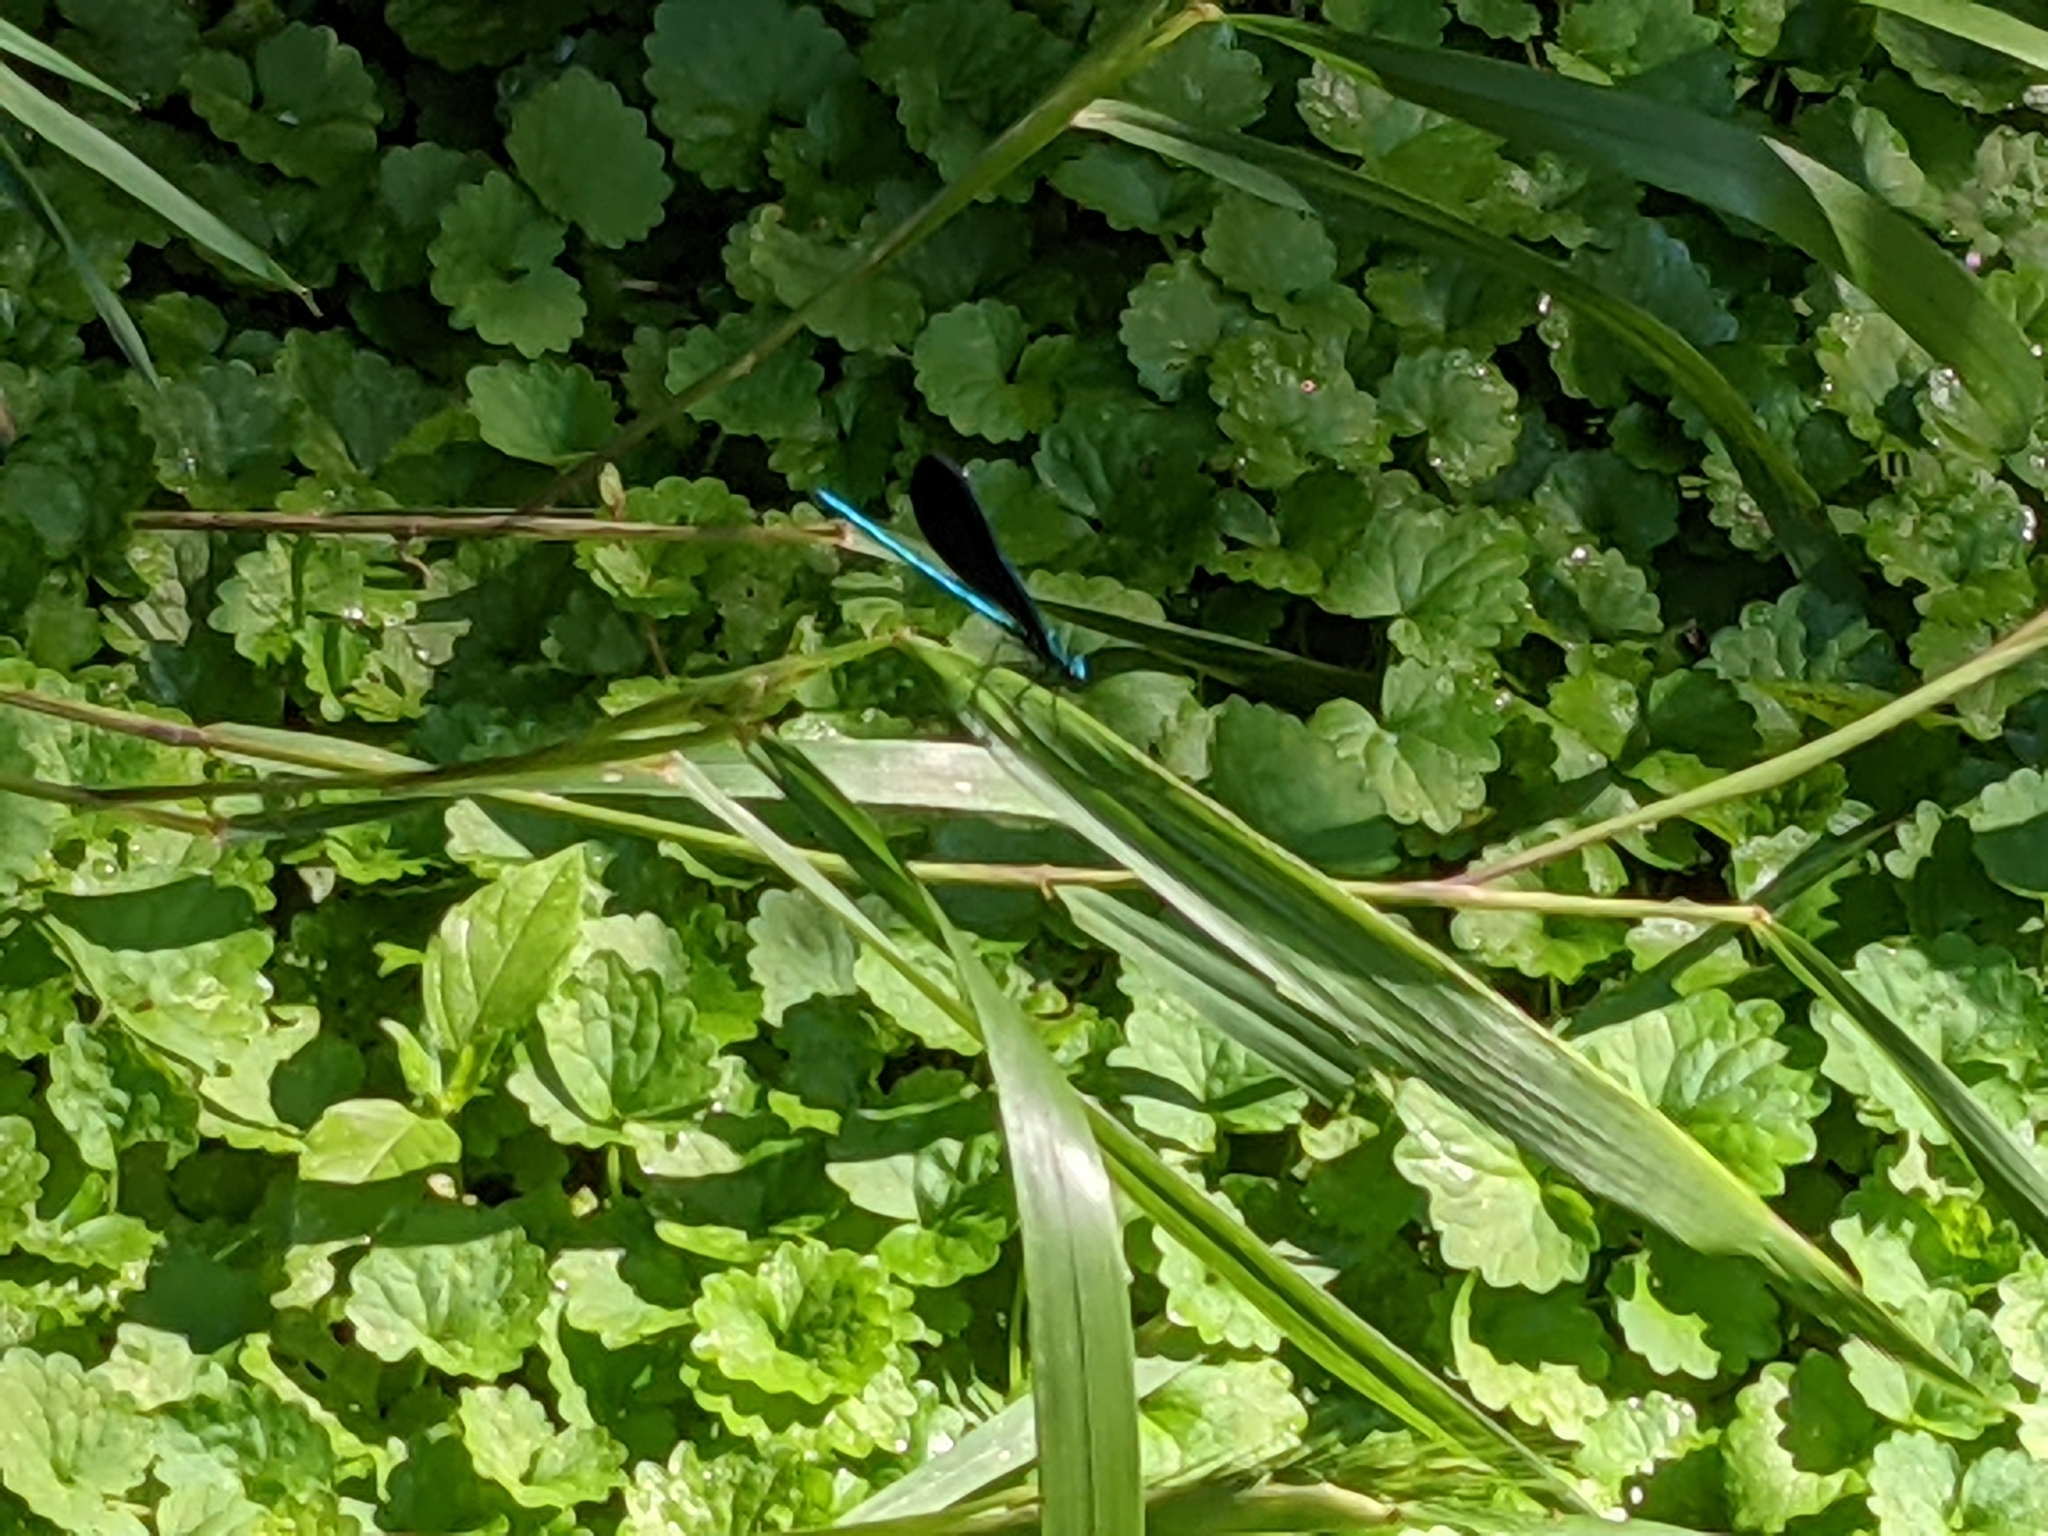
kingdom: Animalia
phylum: Arthropoda
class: Insecta
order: Odonata
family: Calopterygidae
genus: Calopteryx
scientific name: Calopteryx maculata
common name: Ebony jewelwing
